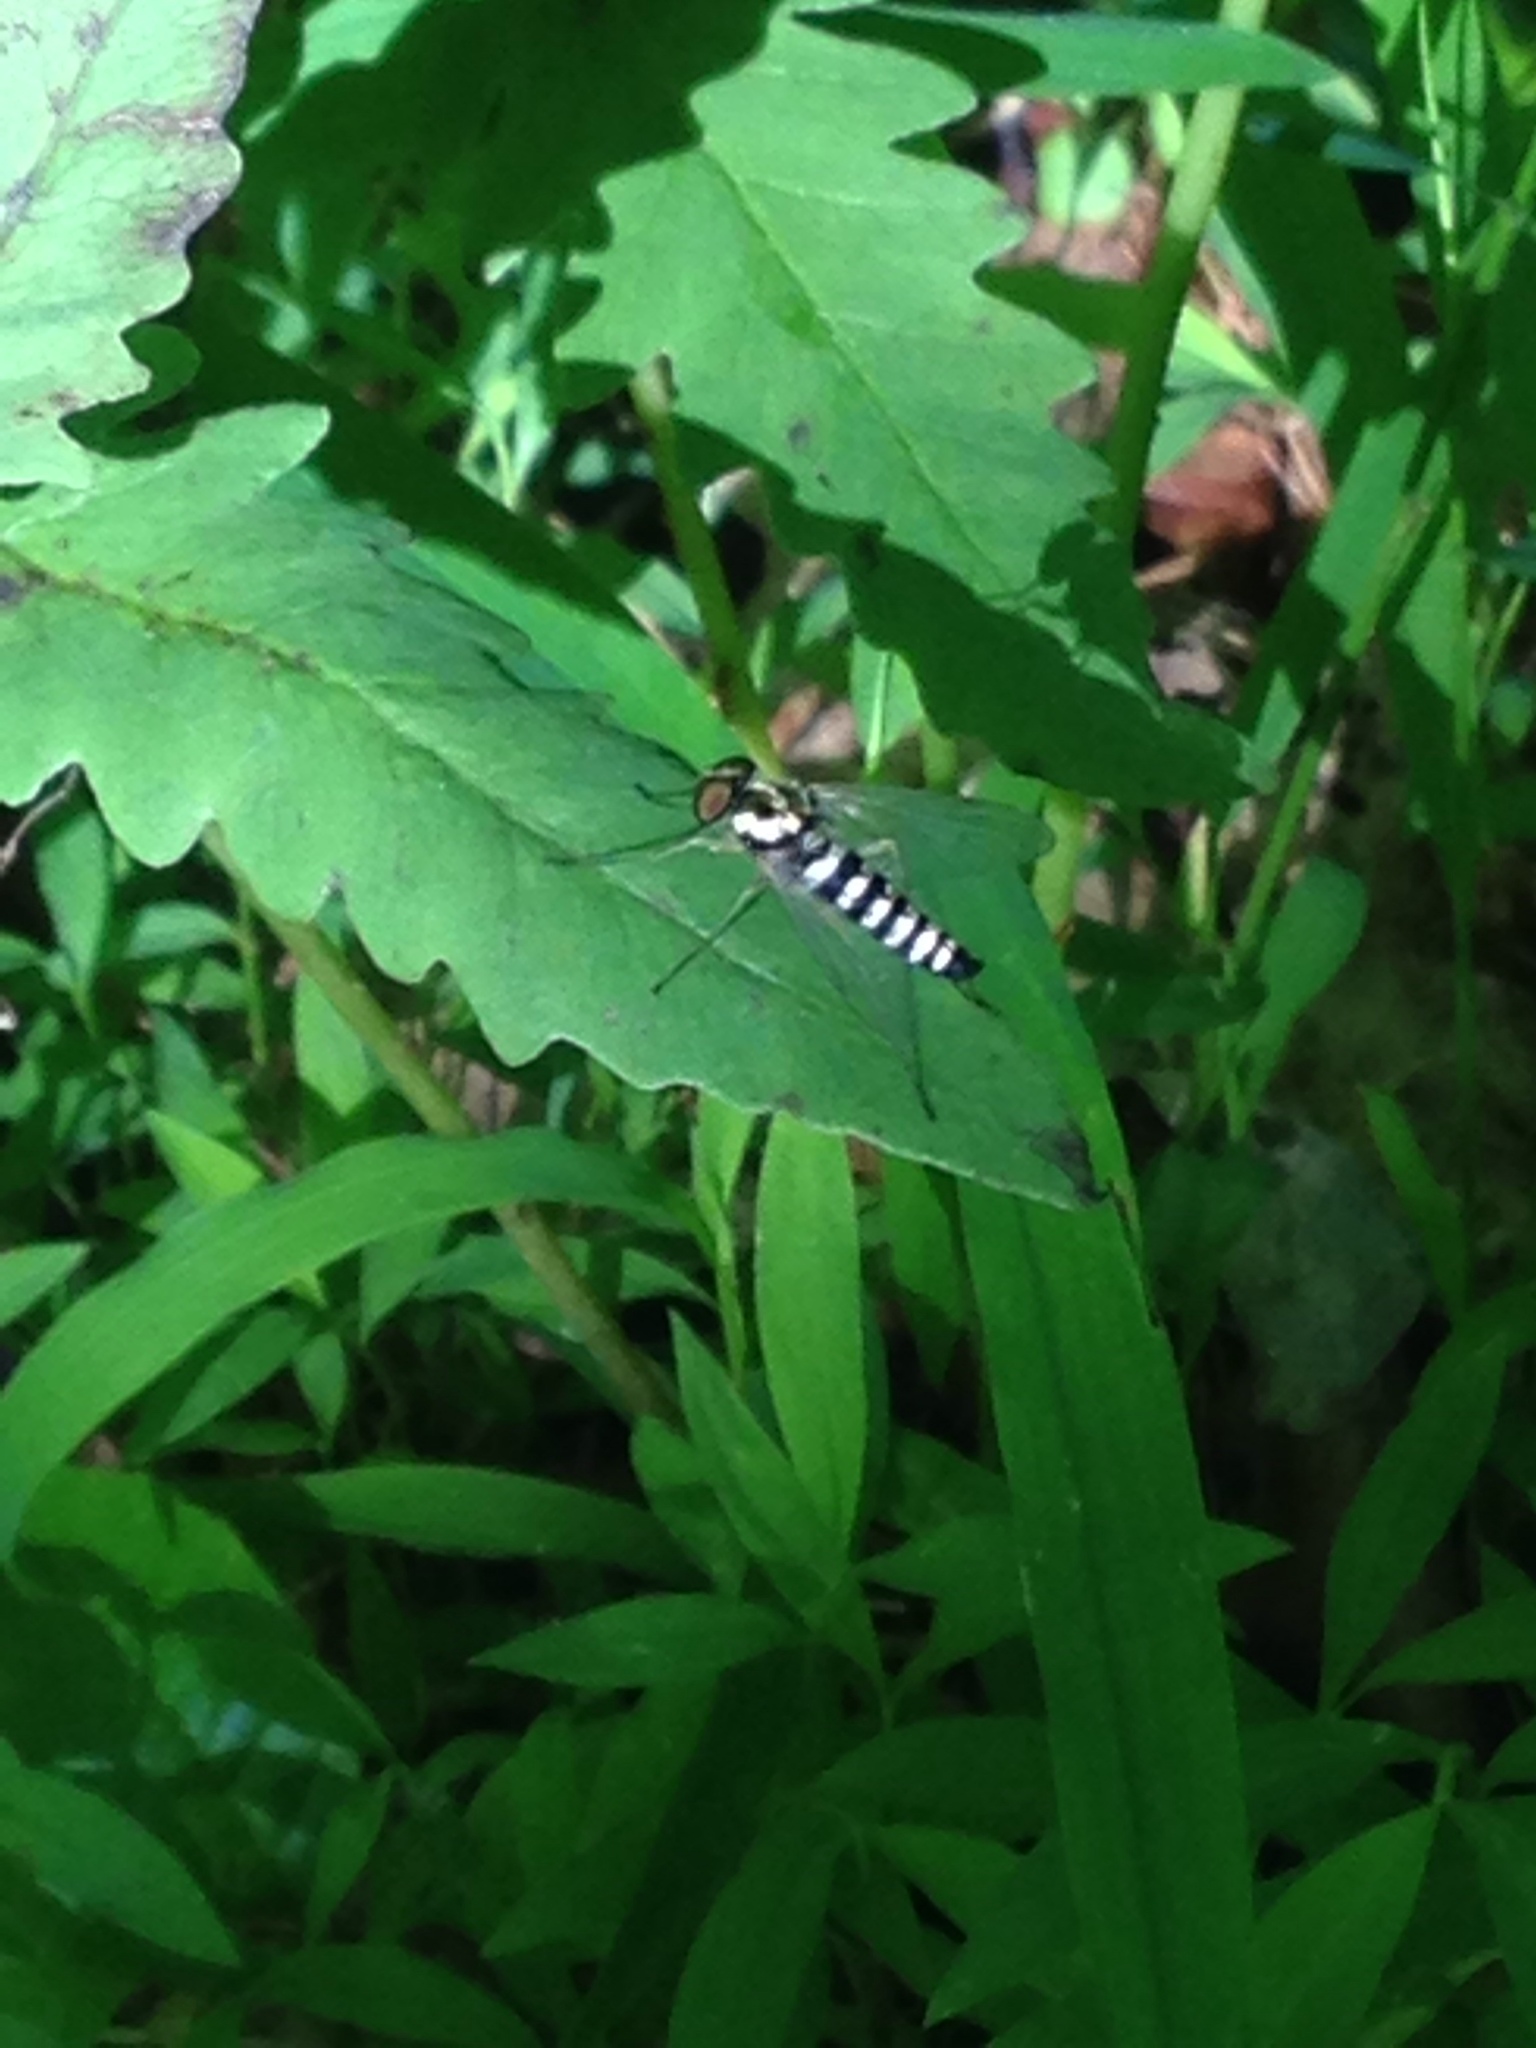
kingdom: Animalia
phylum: Arthropoda
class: Insecta
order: Diptera
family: Rhagionidae
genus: Chrysopilus
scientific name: Chrysopilus ornatus
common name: Ornate snipe fly
